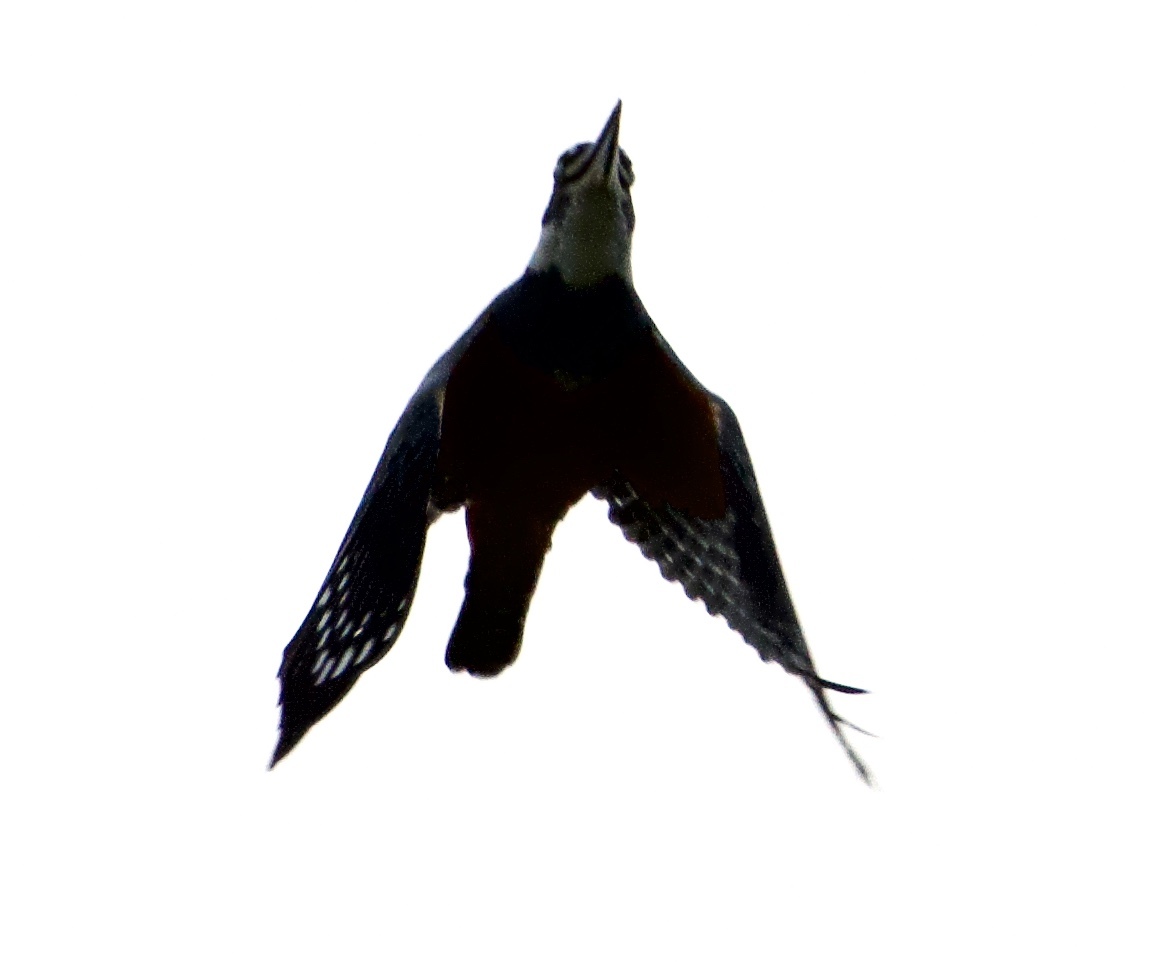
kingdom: Animalia
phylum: Chordata
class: Aves
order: Coraciiformes
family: Alcedinidae
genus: Megaceryle
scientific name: Megaceryle torquata
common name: Ringed kingfisher
